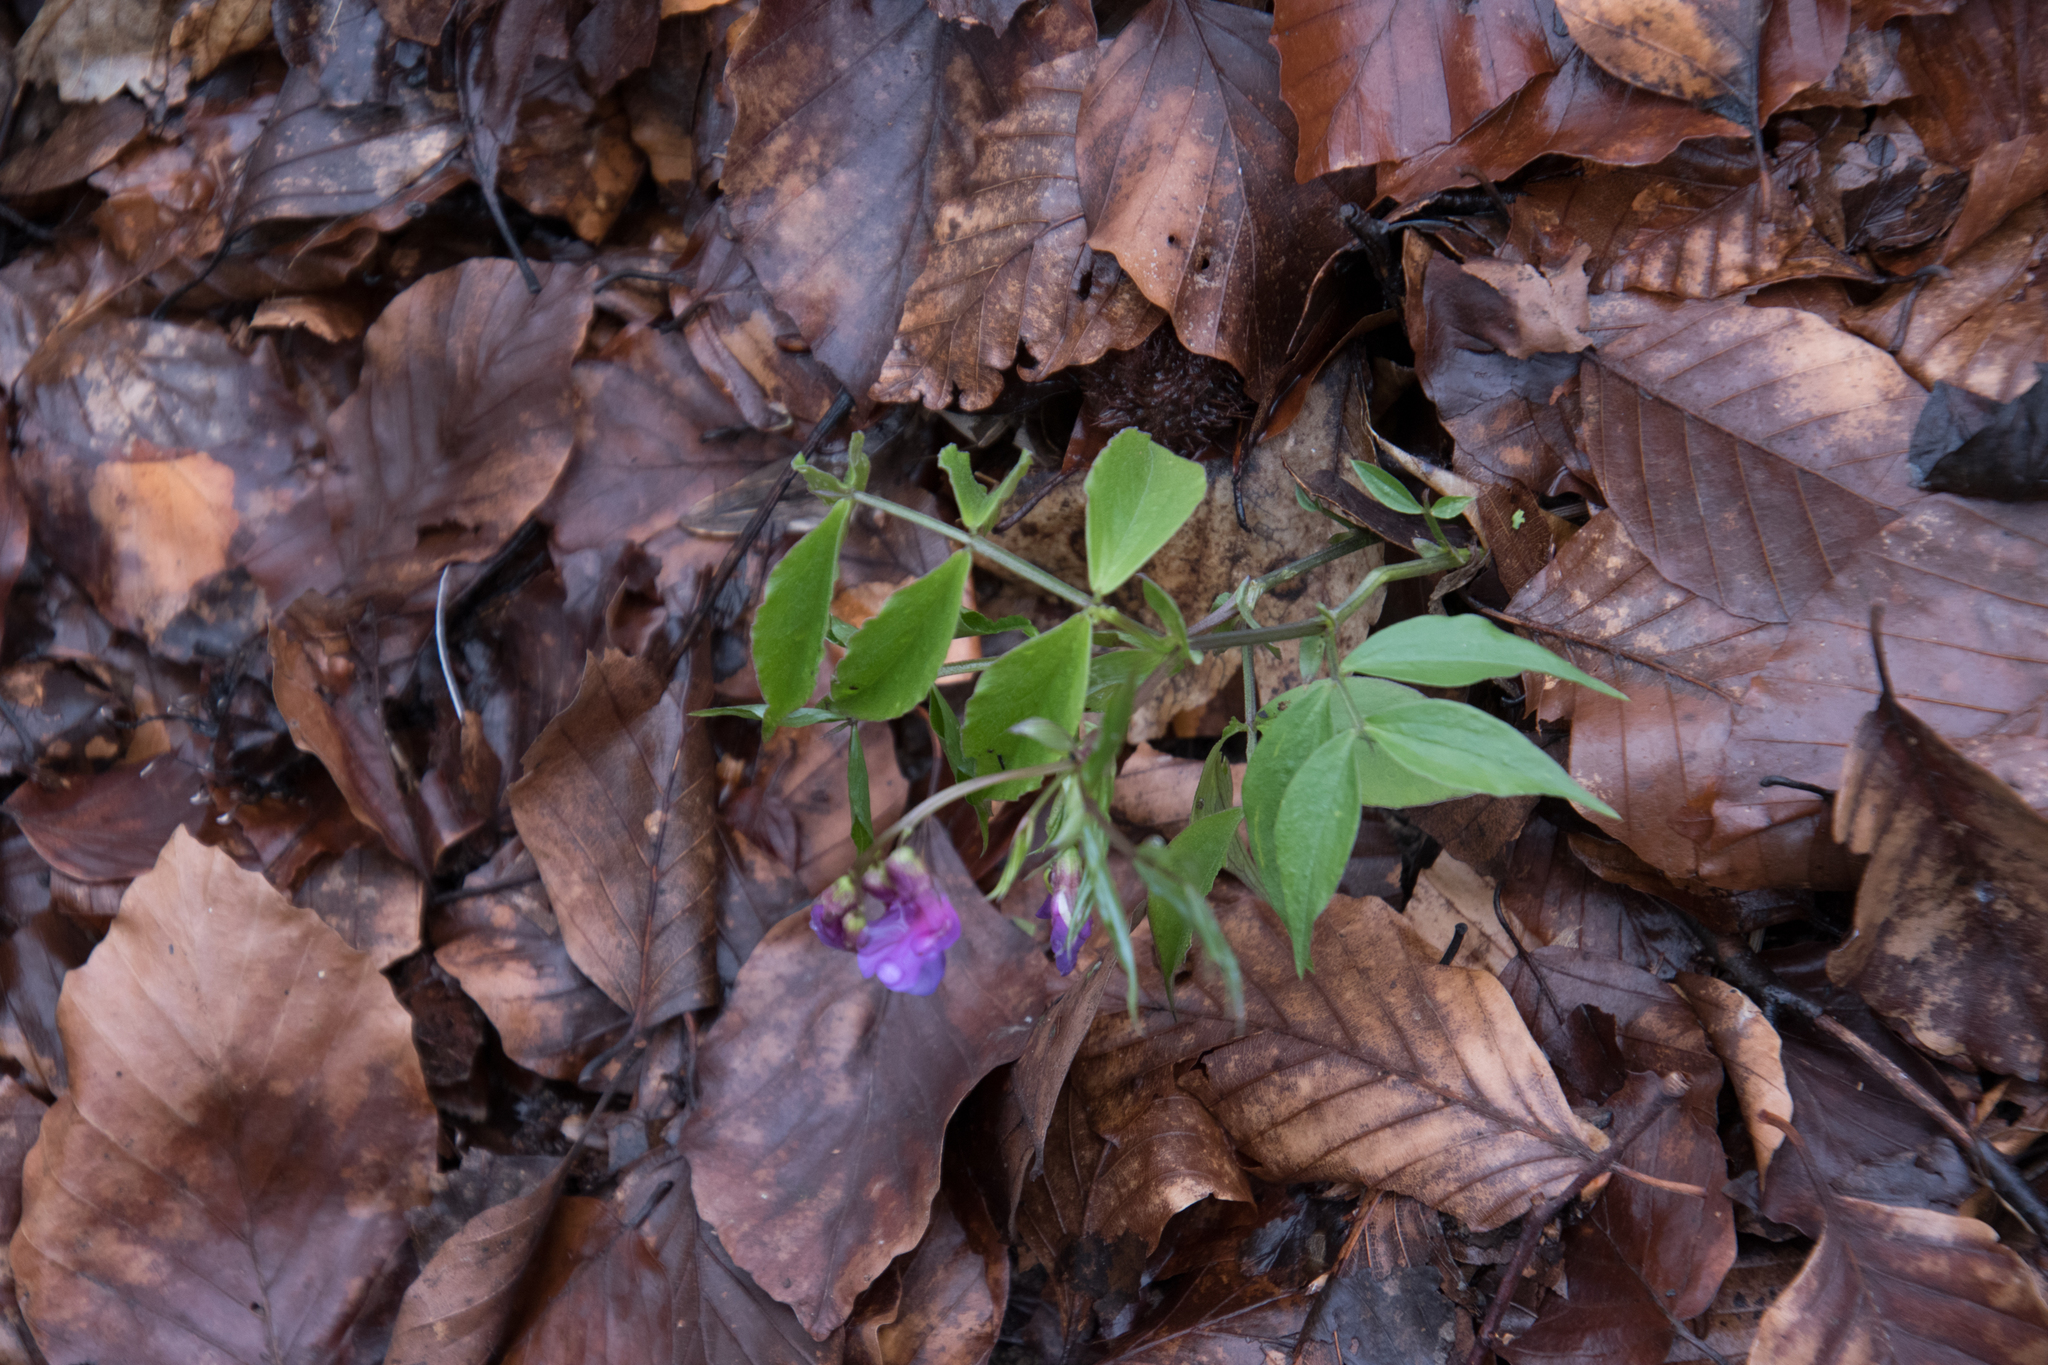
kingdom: Plantae
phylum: Tracheophyta
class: Magnoliopsida
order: Fabales
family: Fabaceae
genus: Lathyrus
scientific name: Lathyrus vernus
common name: Spring pea
